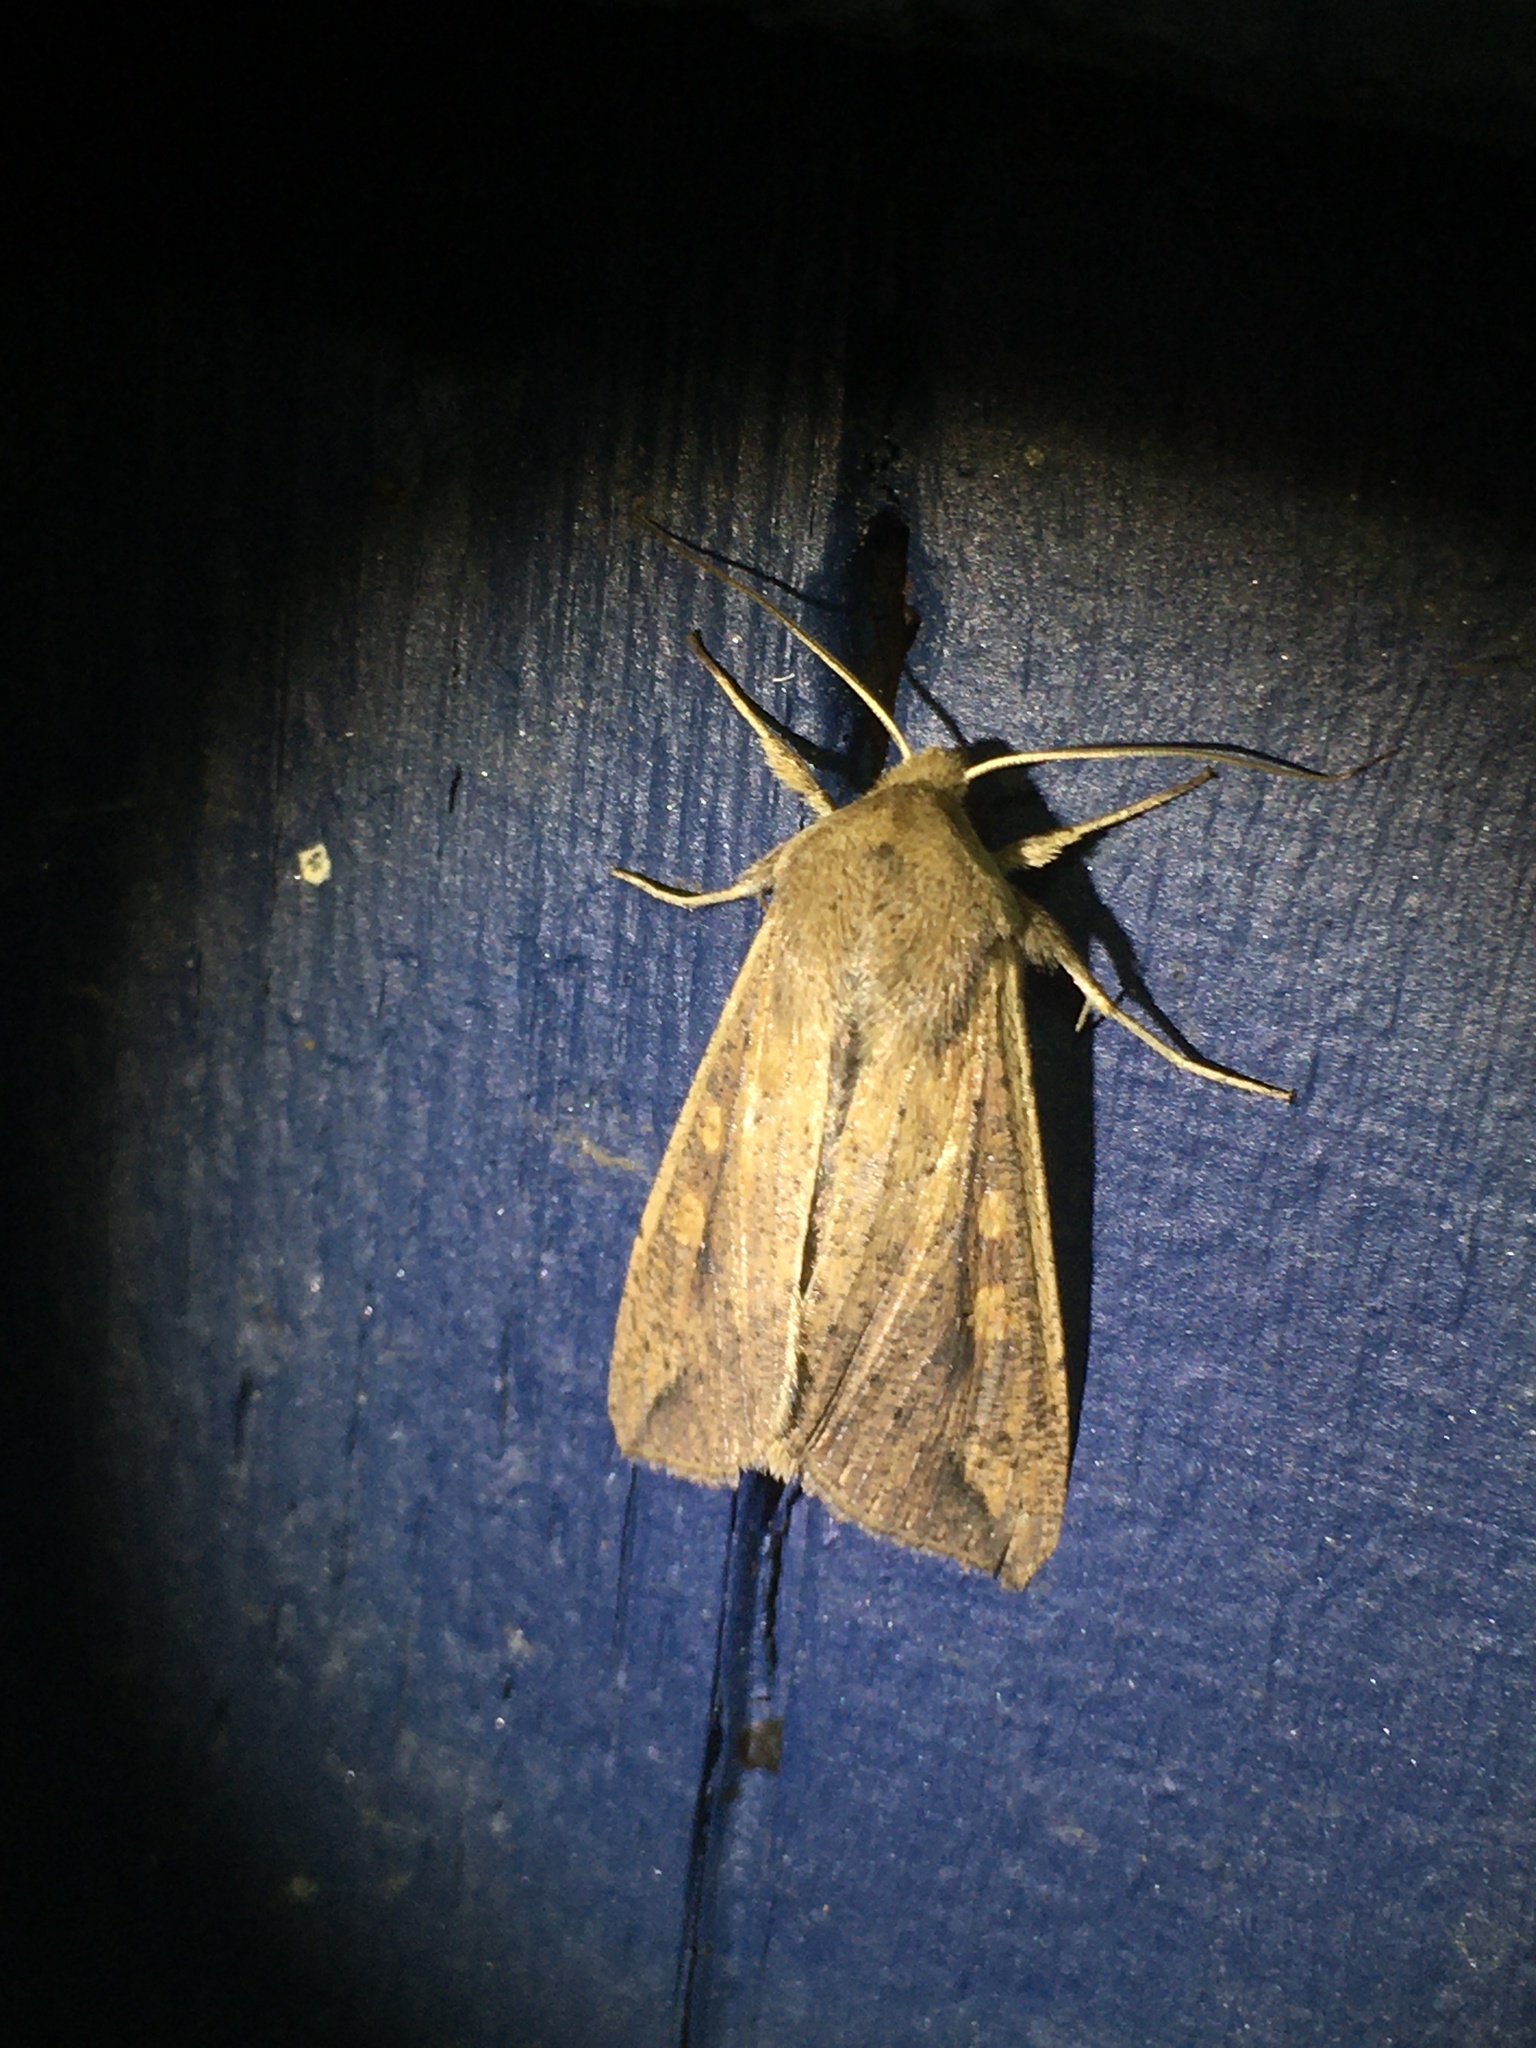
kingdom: Animalia
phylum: Arthropoda
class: Insecta
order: Lepidoptera
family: Noctuidae
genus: Mythimna
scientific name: Mythimna unipuncta
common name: White-speck
